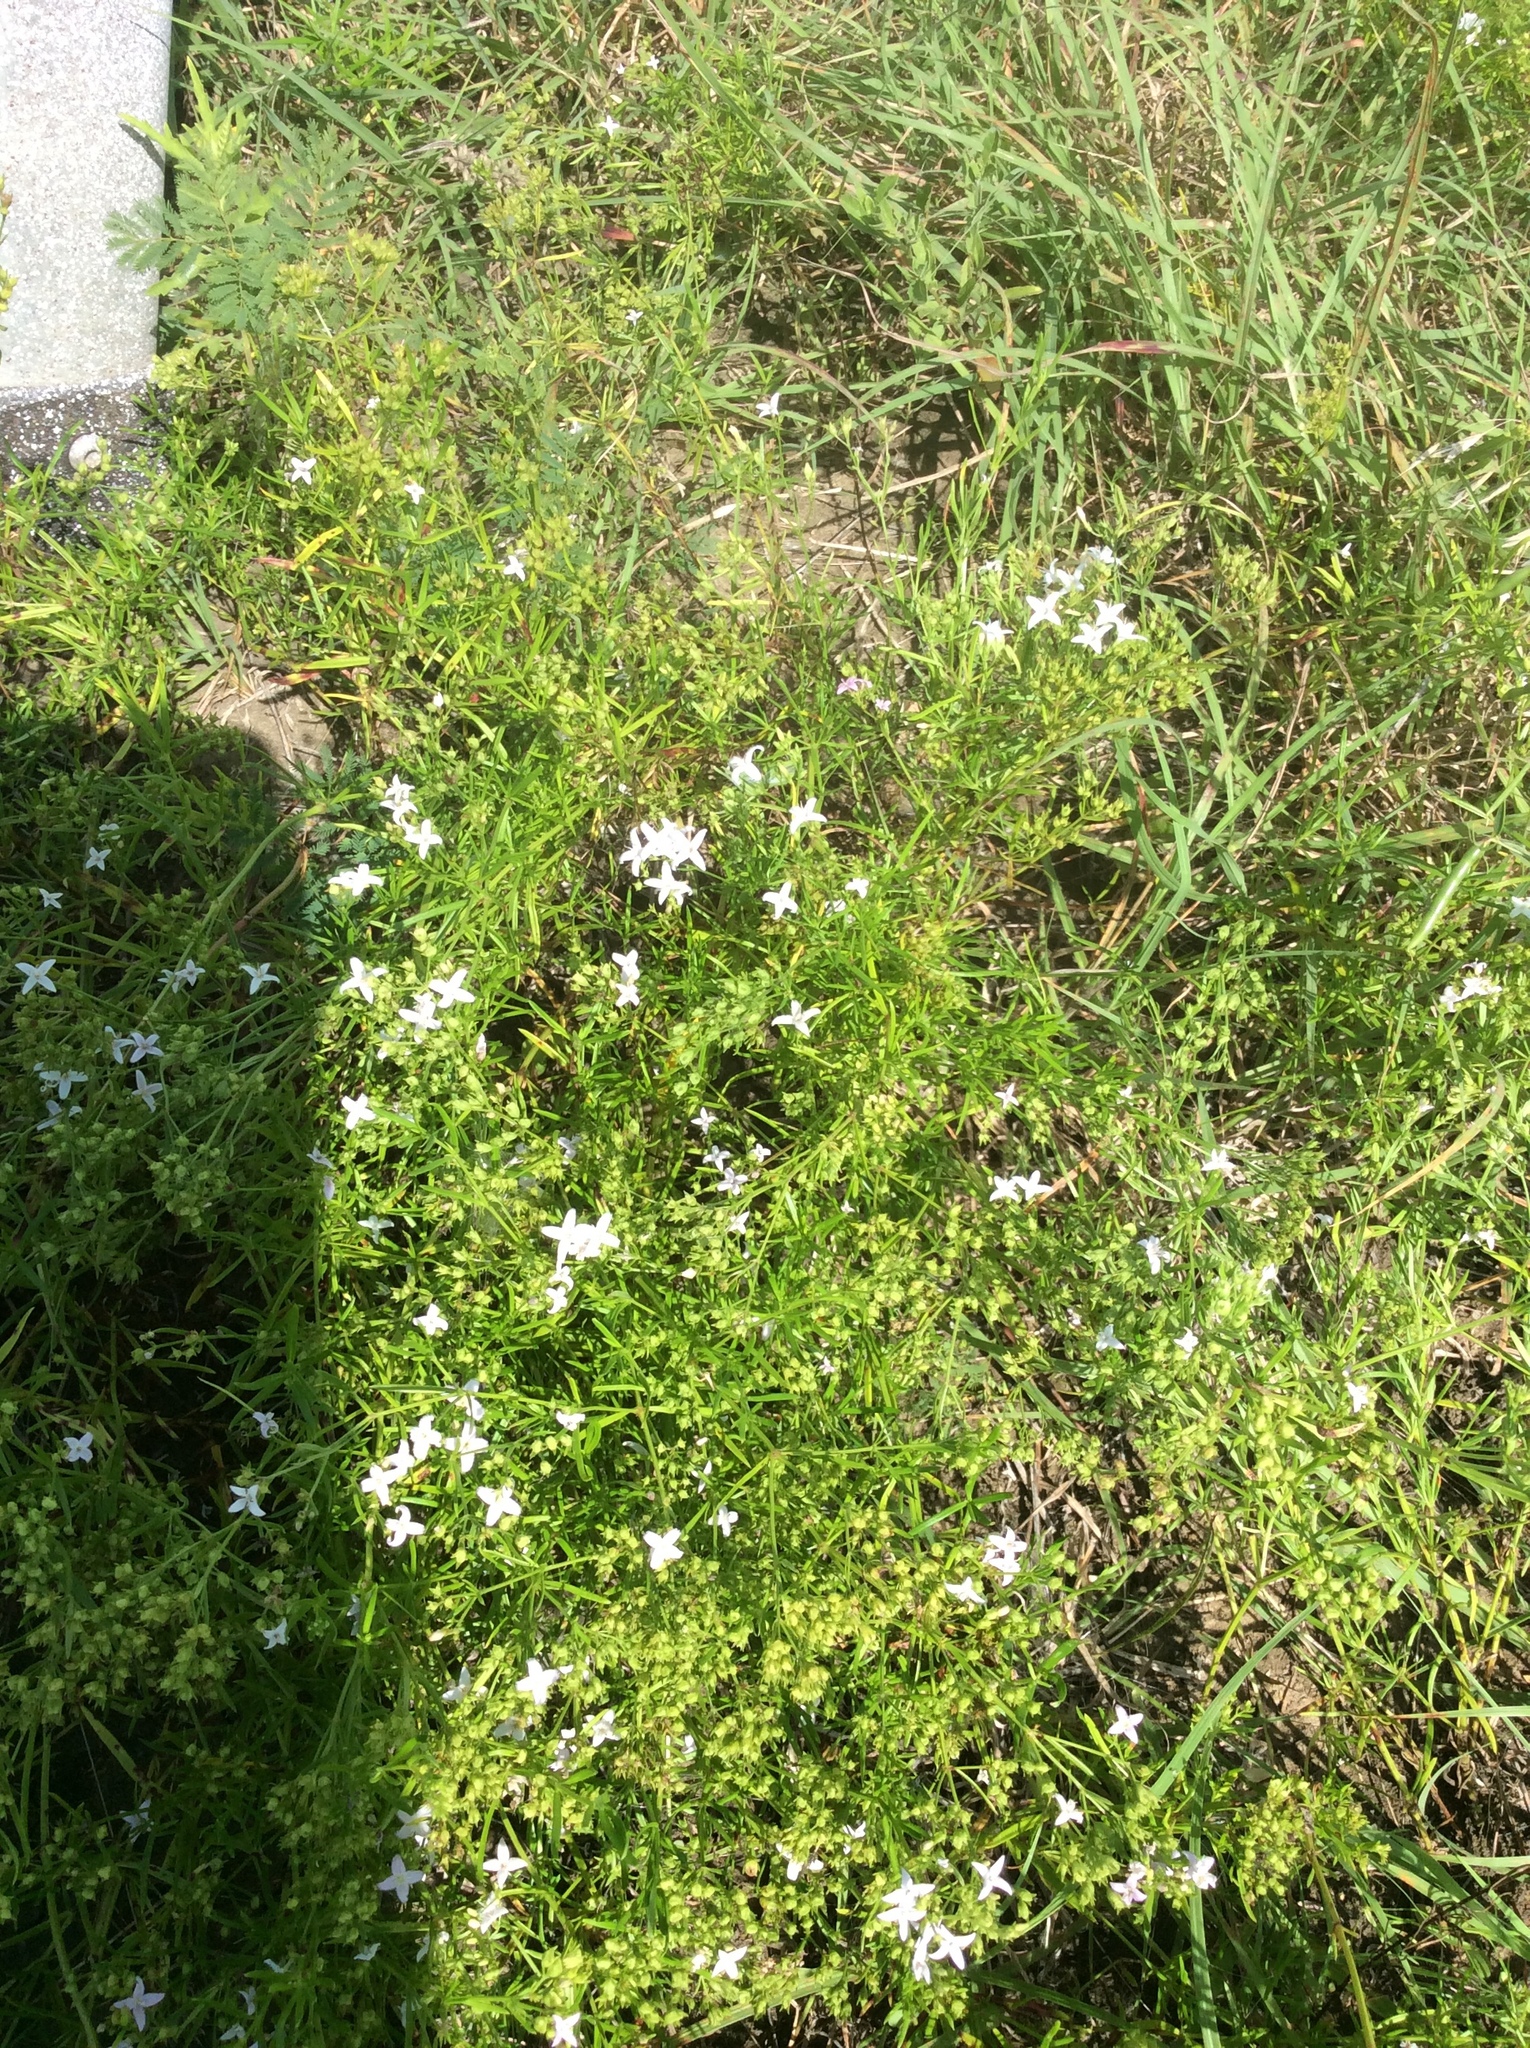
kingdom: Plantae
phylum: Tracheophyta
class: Magnoliopsida
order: Gentianales
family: Rubiaceae
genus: Stenaria
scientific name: Stenaria nigricans
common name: Diamondflowers
